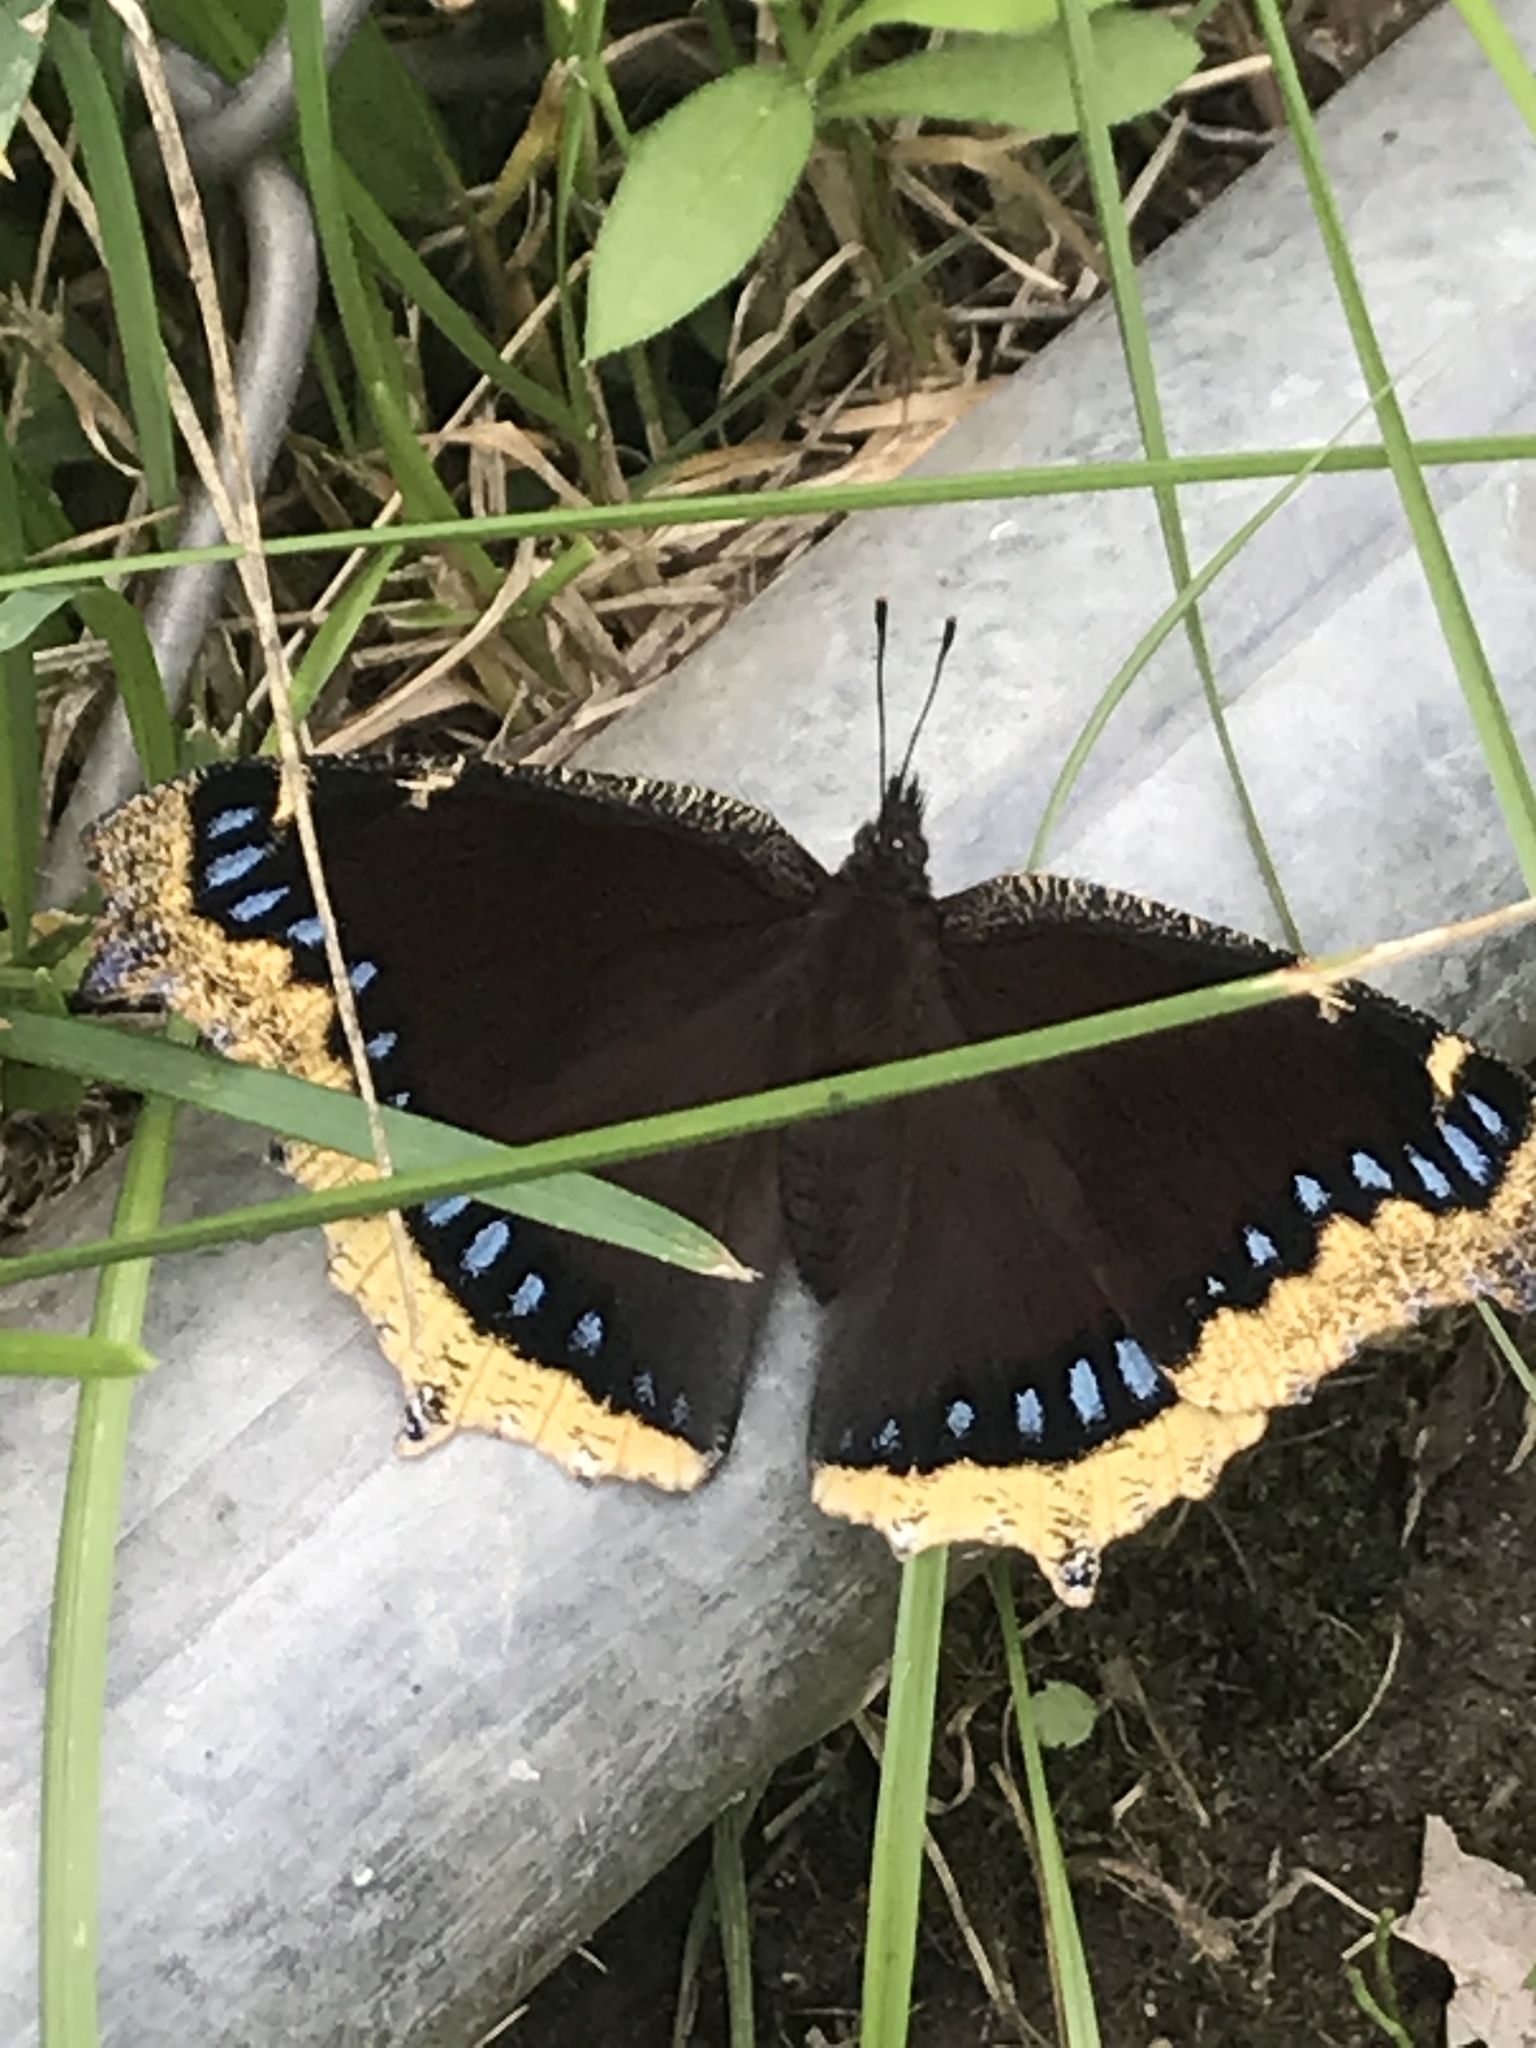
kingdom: Animalia
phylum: Arthropoda
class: Insecta
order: Lepidoptera
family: Nymphalidae
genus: Nymphalis
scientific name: Nymphalis antiopa
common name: Camberwell beauty
